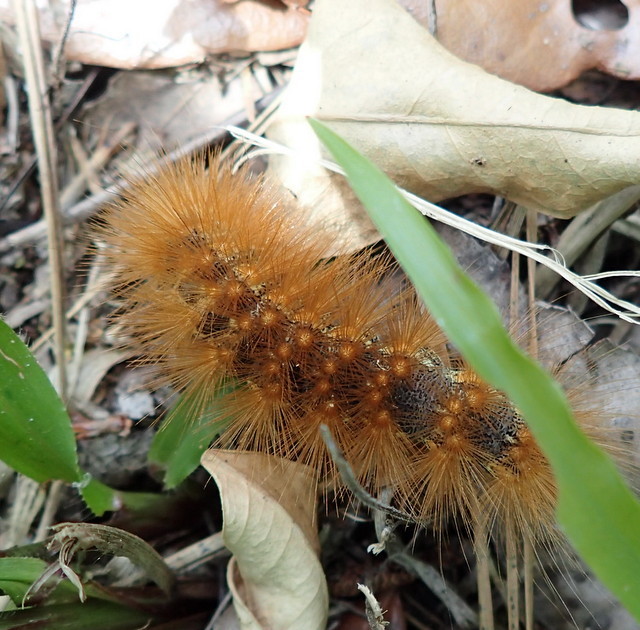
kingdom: Animalia
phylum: Arthropoda
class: Insecta
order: Lepidoptera
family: Erebidae
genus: Estigmene
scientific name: Estigmene acrea
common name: Salt marsh moth
